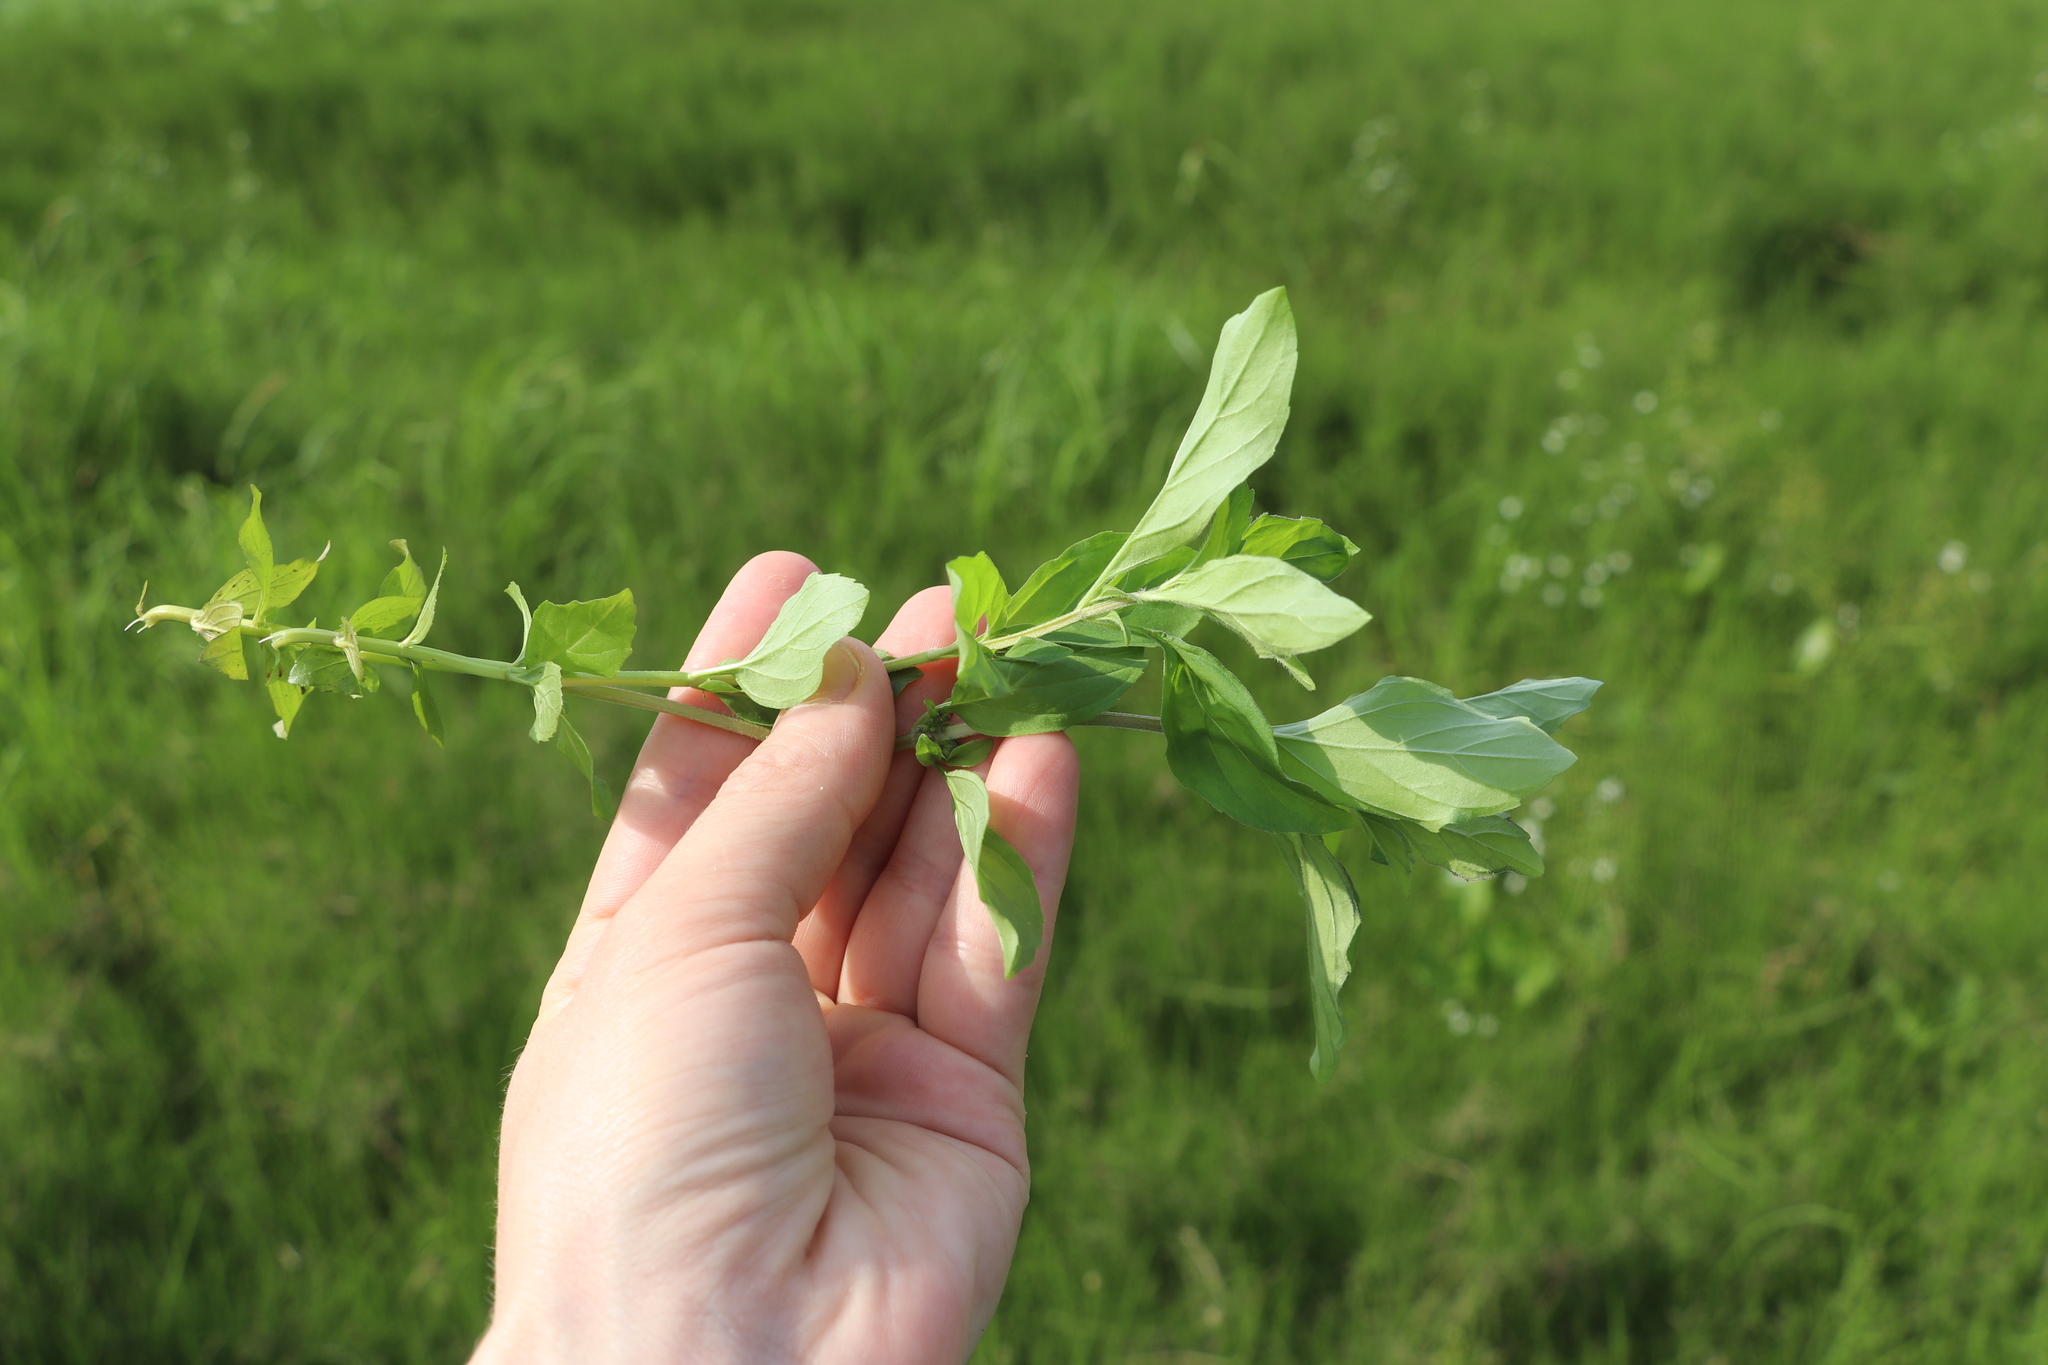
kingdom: Plantae
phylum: Tracheophyta
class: Magnoliopsida
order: Lamiales
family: Lamiaceae
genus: Mentha
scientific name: Mentha arvensis
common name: Corn mint
